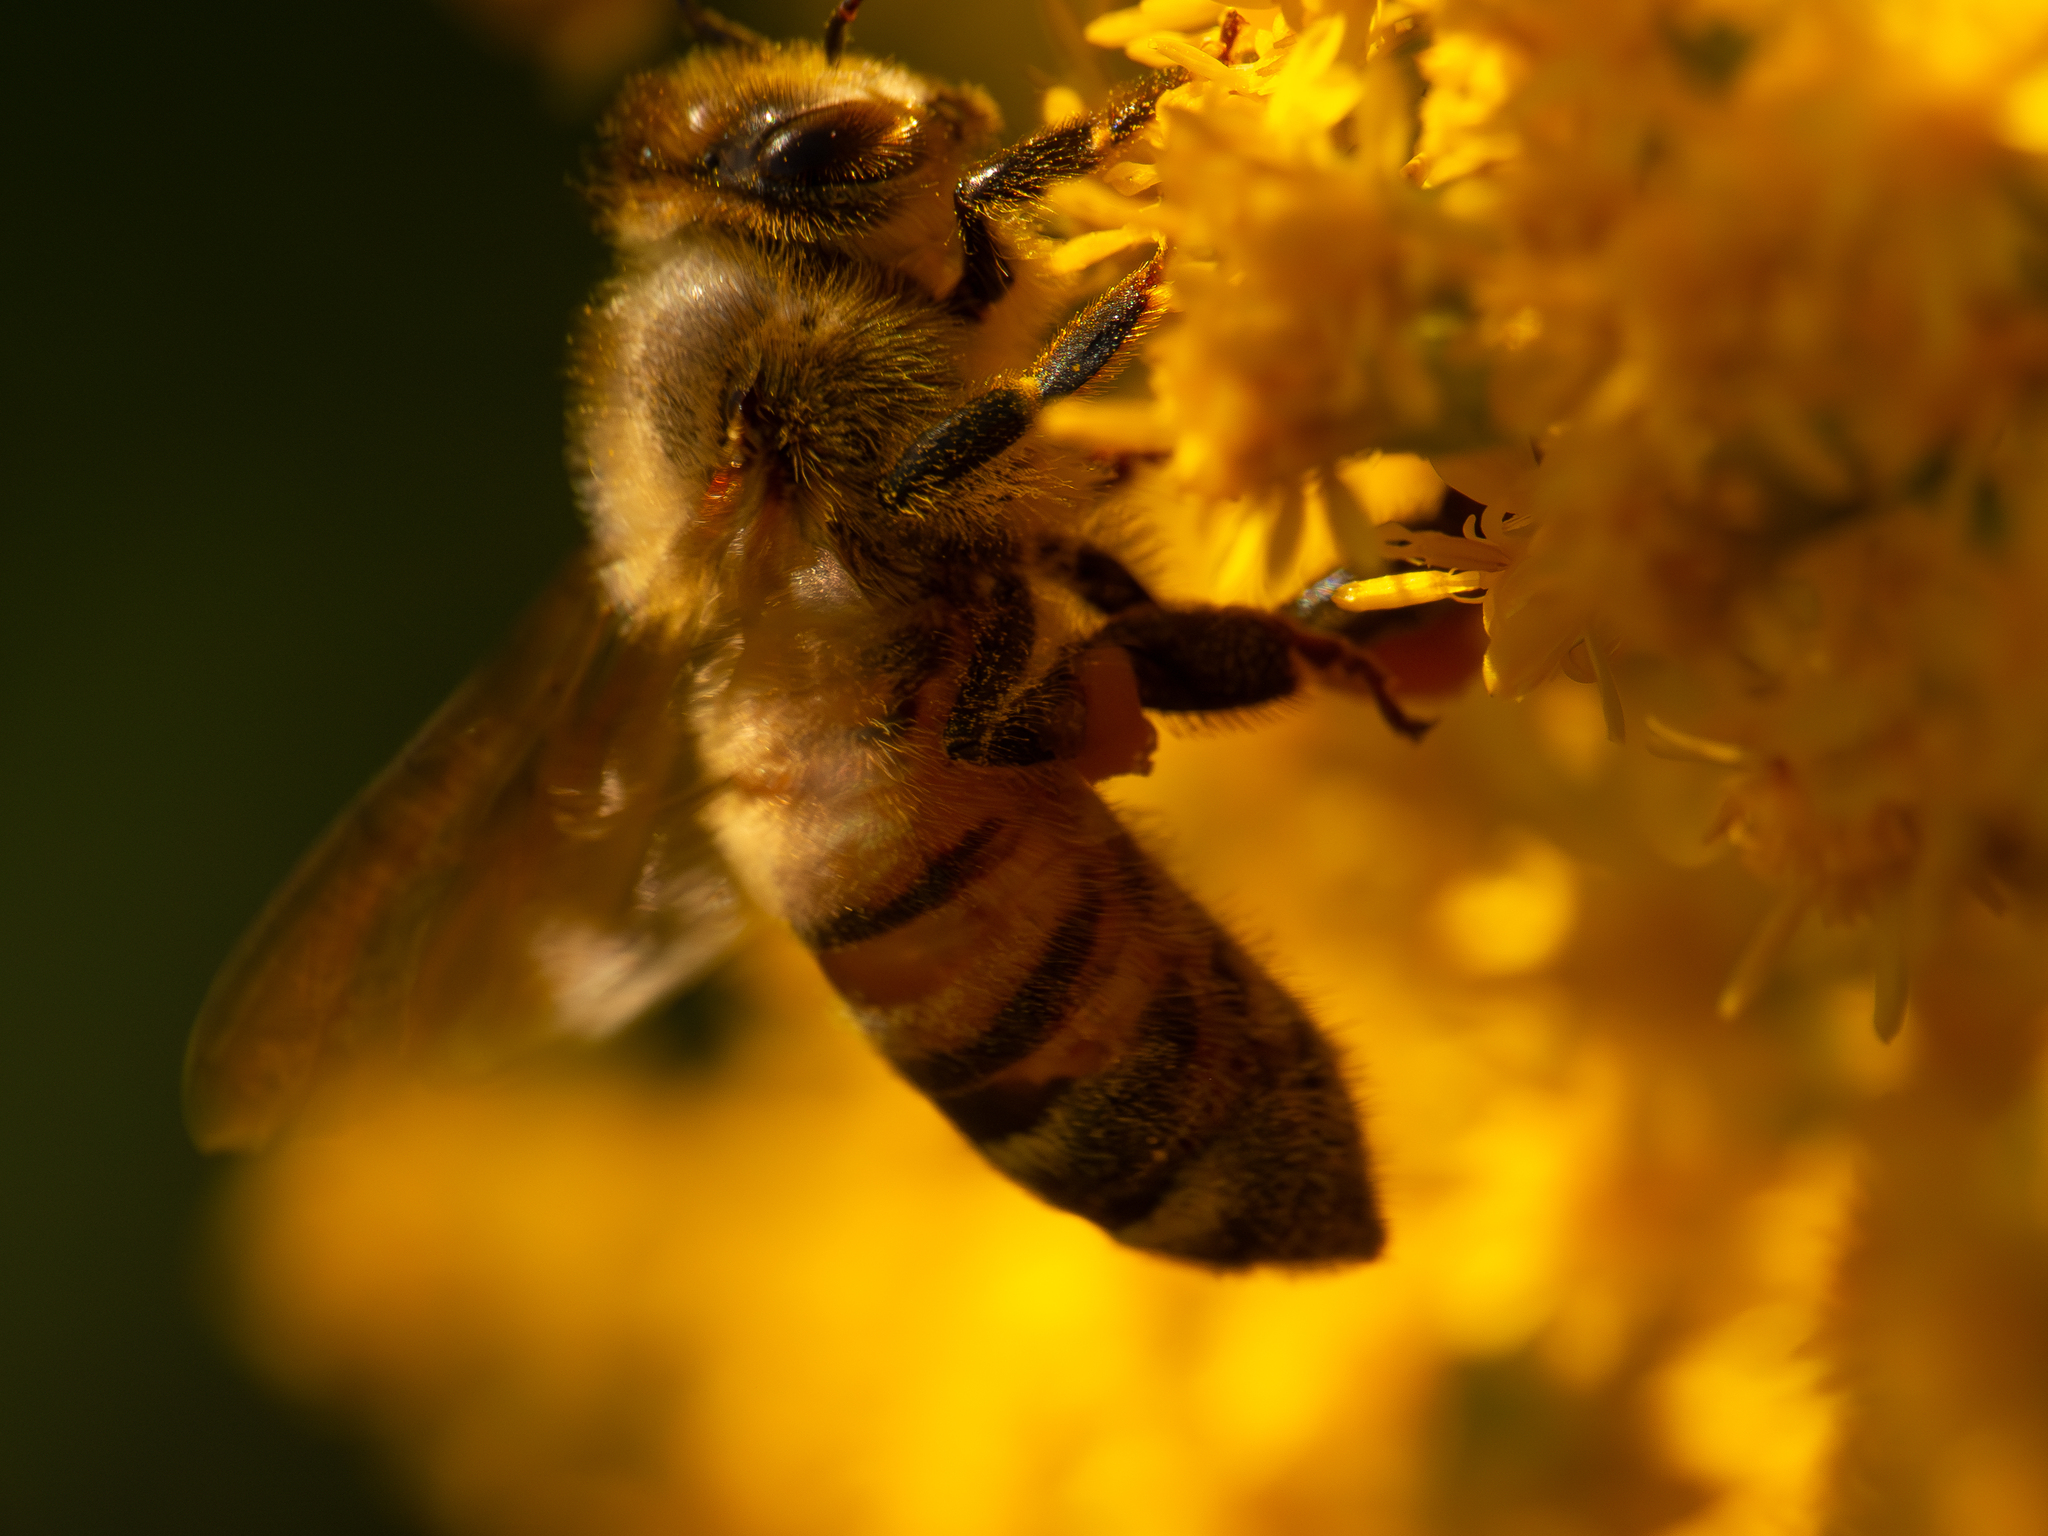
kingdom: Animalia
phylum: Arthropoda
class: Insecta
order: Hymenoptera
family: Apidae
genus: Apis
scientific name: Apis mellifera
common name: Honey bee
